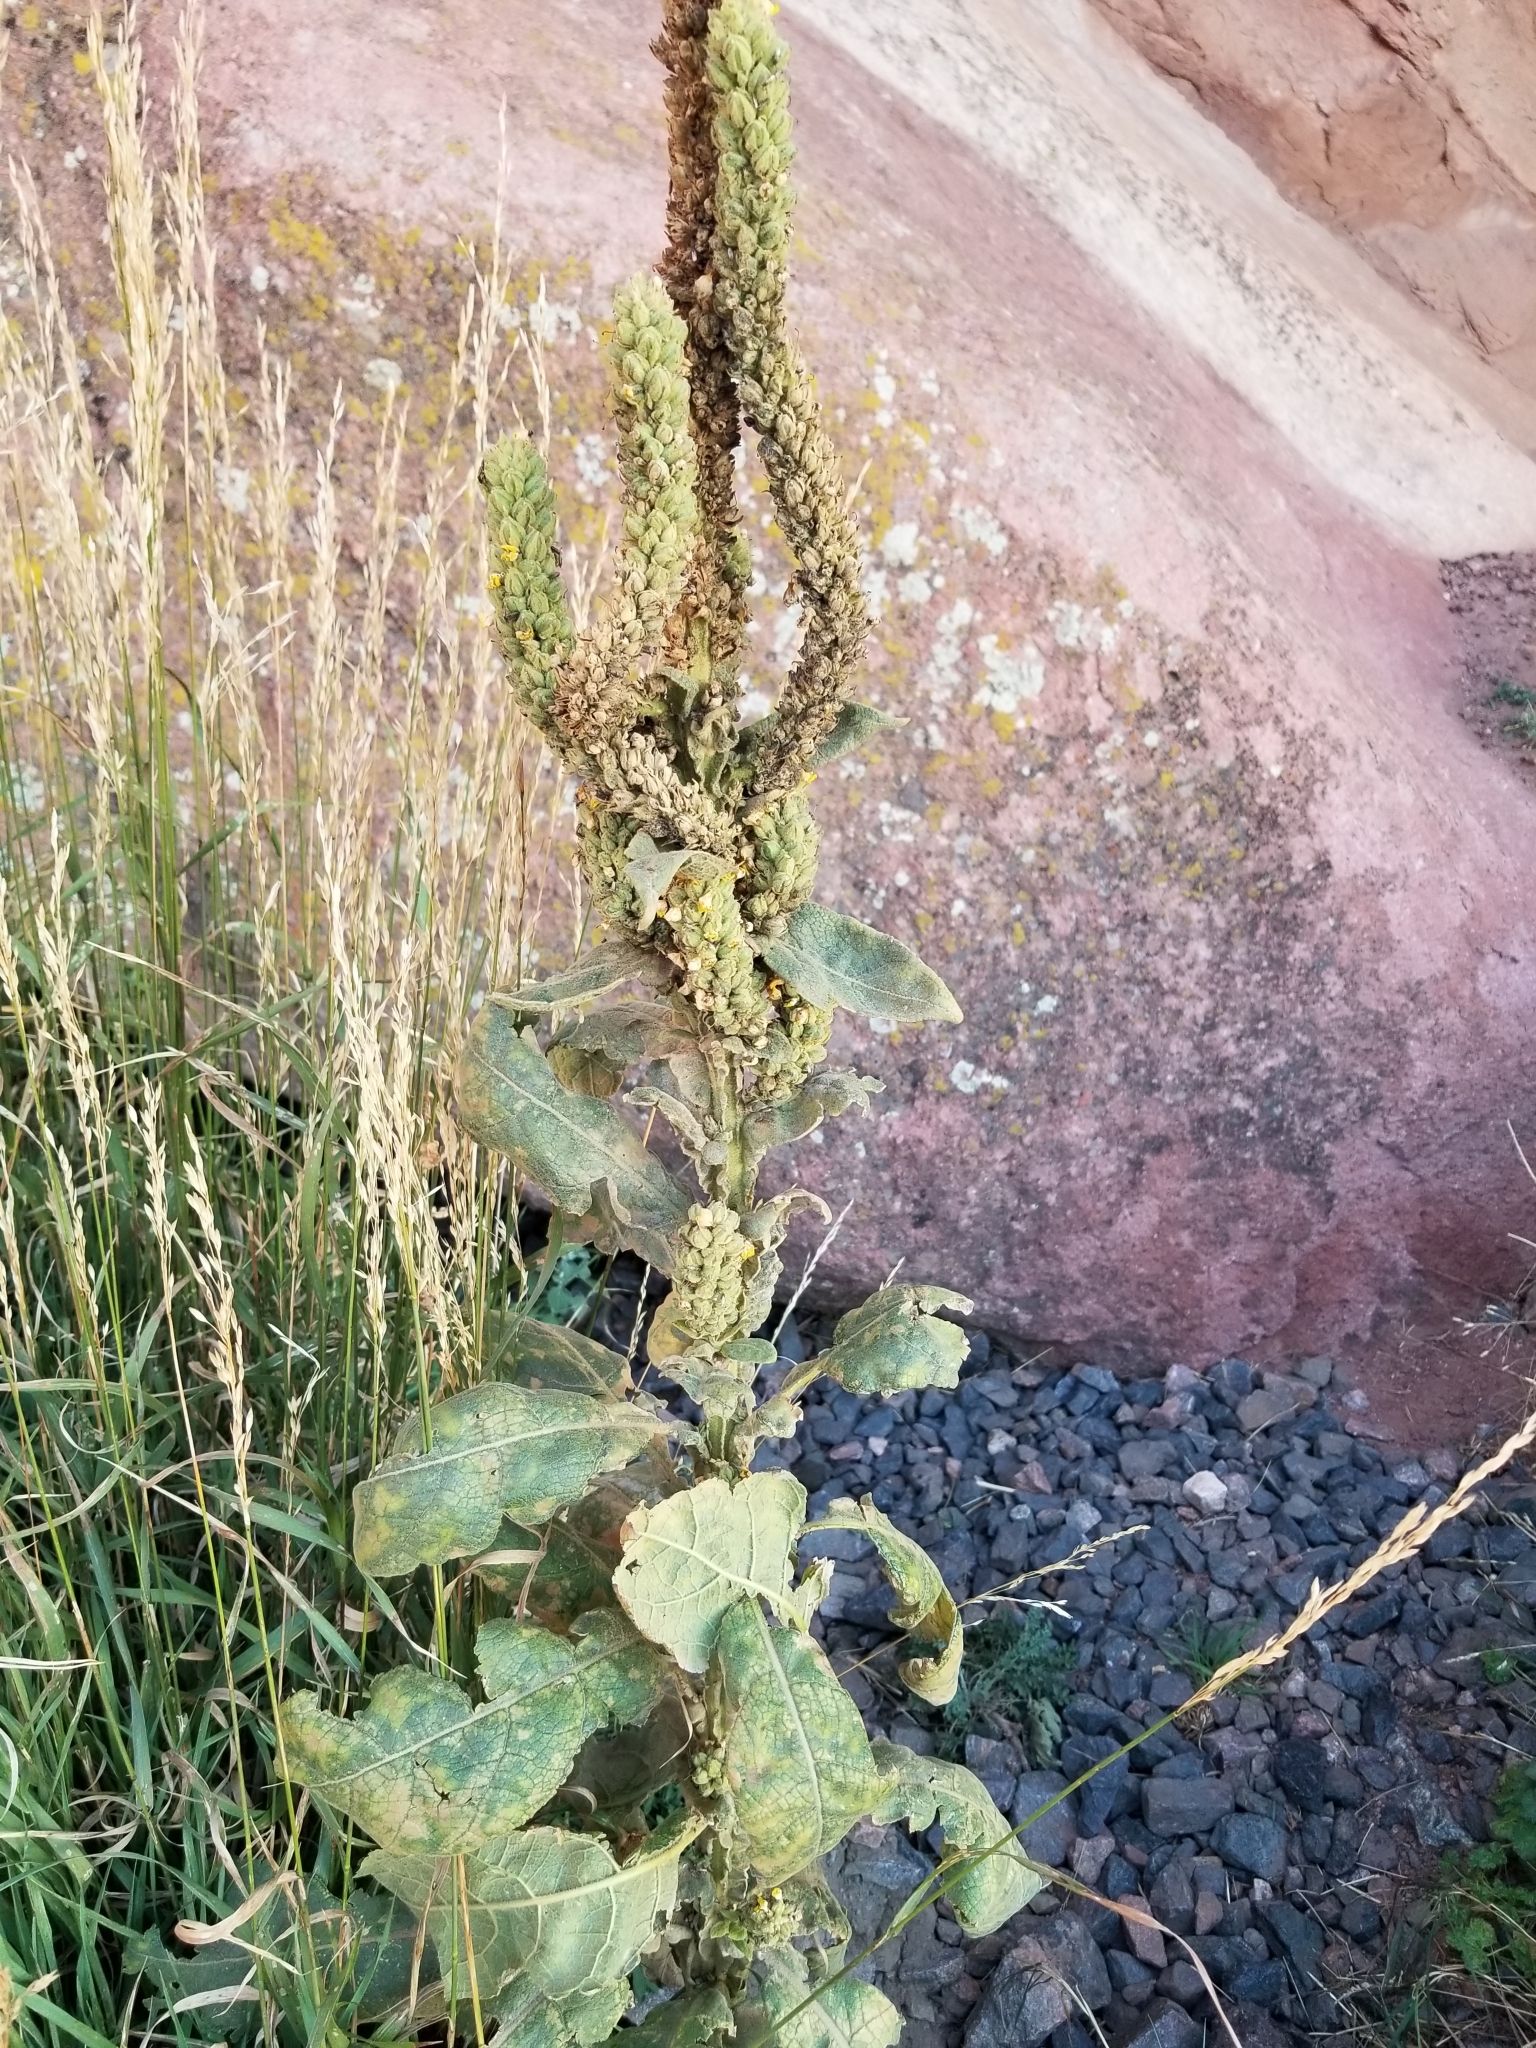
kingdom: Plantae
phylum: Tracheophyta
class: Magnoliopsida
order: Lamiales
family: Scrophulariaceae
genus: Verbascum
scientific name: Verbascum thapsus
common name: Common mullein
